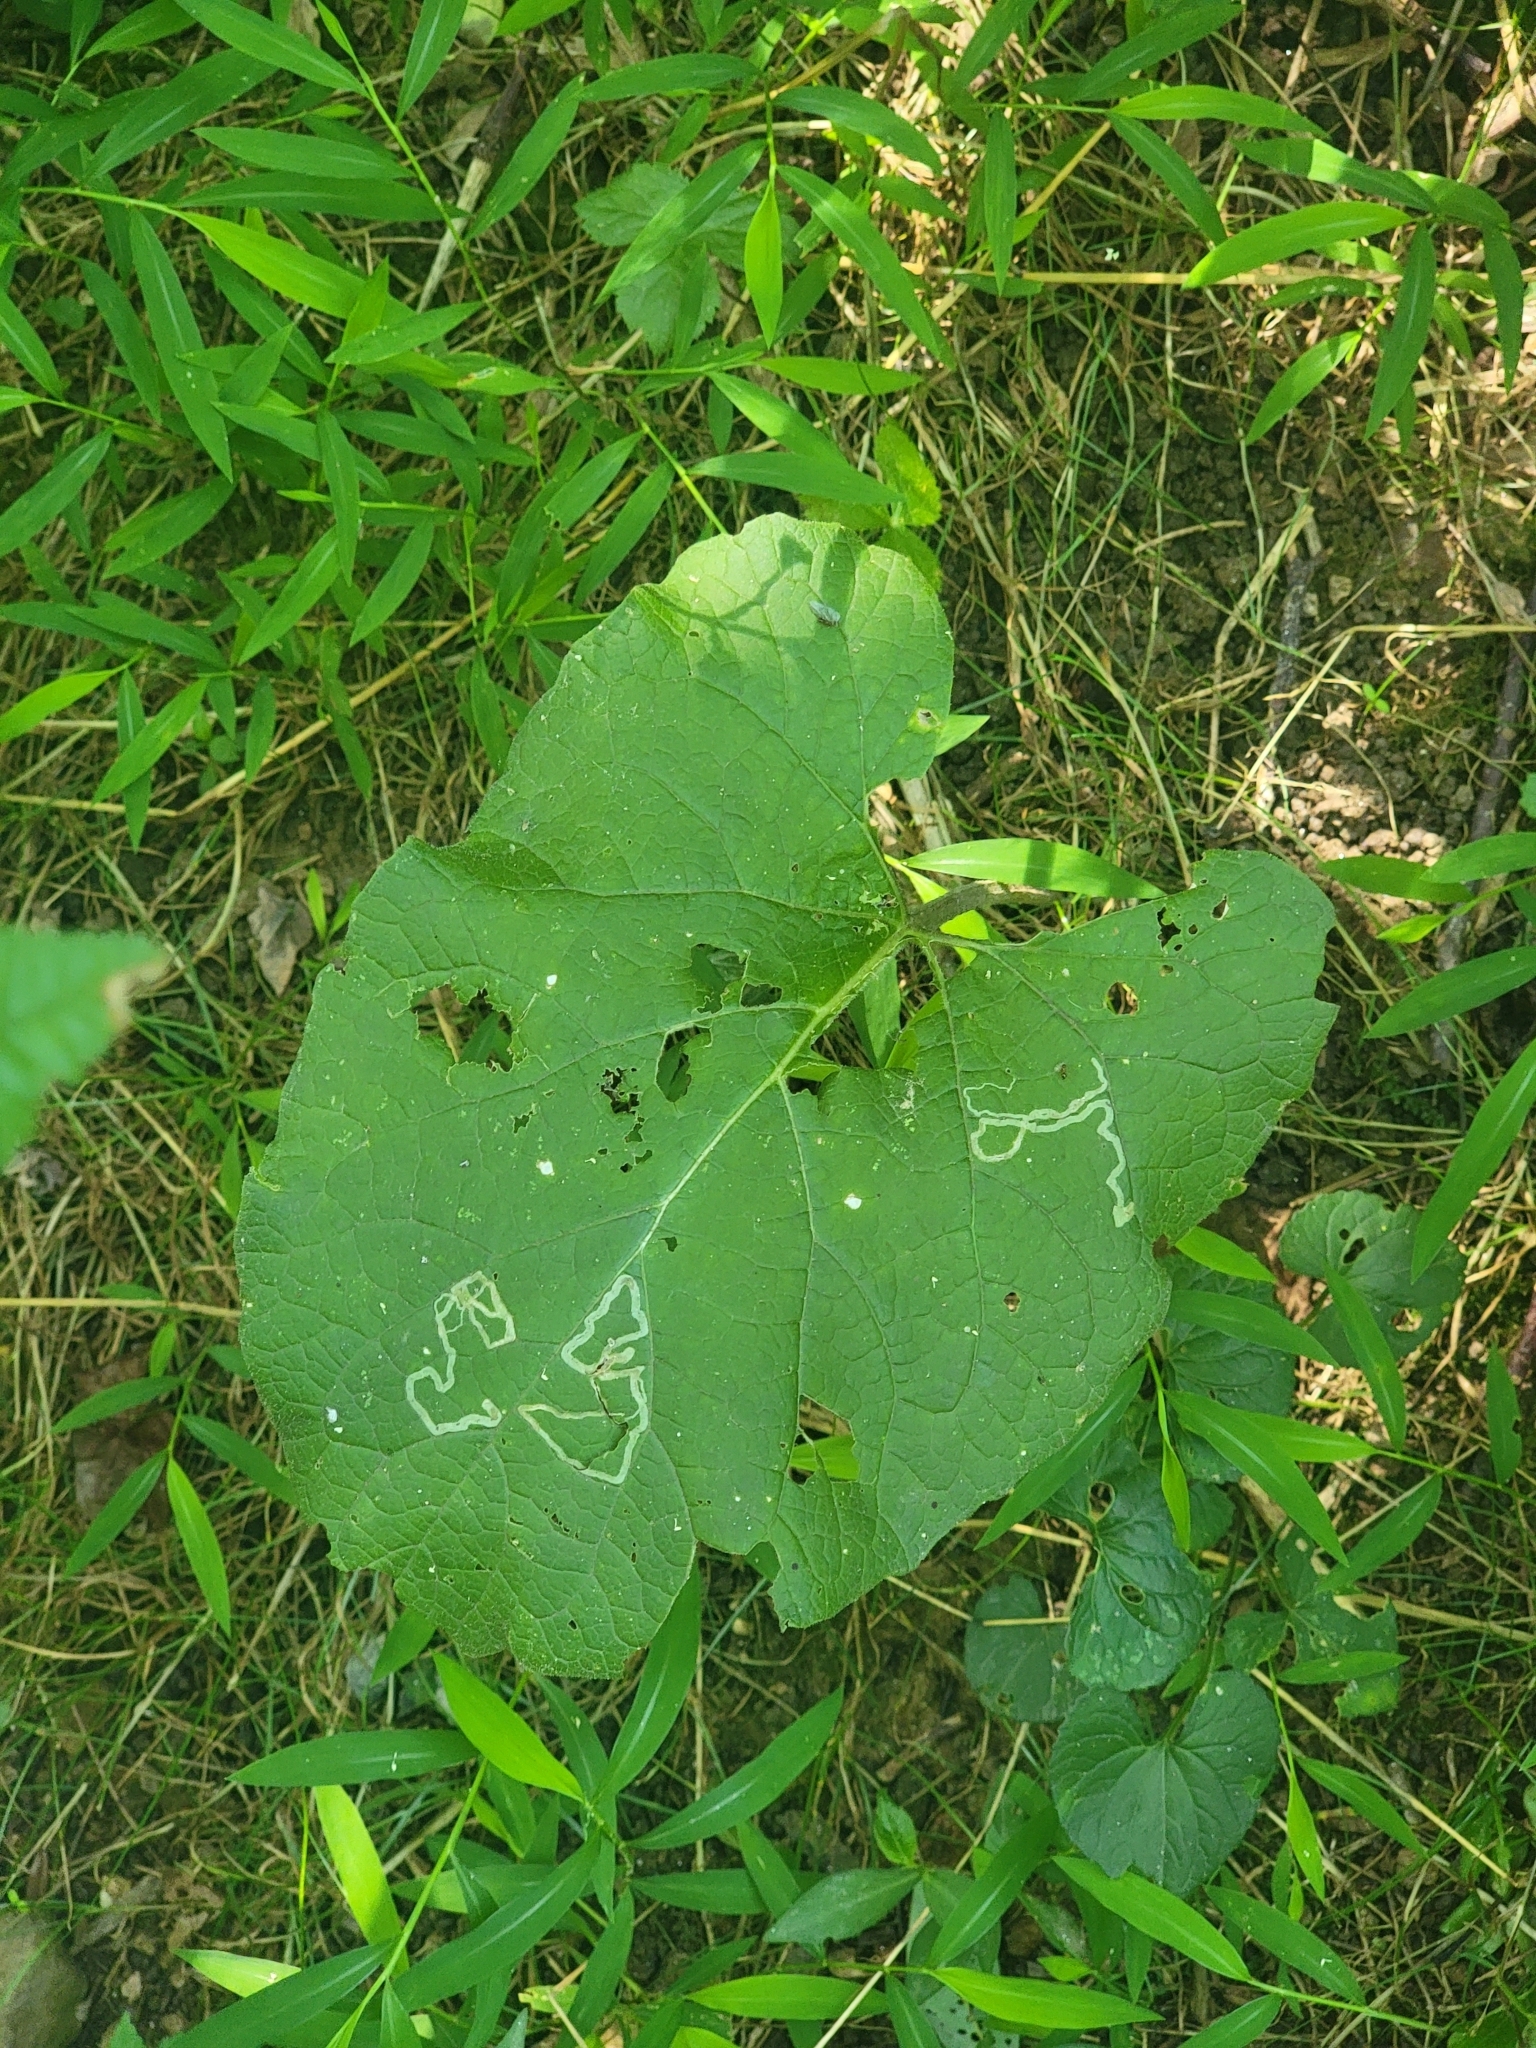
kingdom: Plantae
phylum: Tracheophyta
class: Magnoliopsida
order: Asterales
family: Asteraceae
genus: Arctium
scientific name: Arctium
